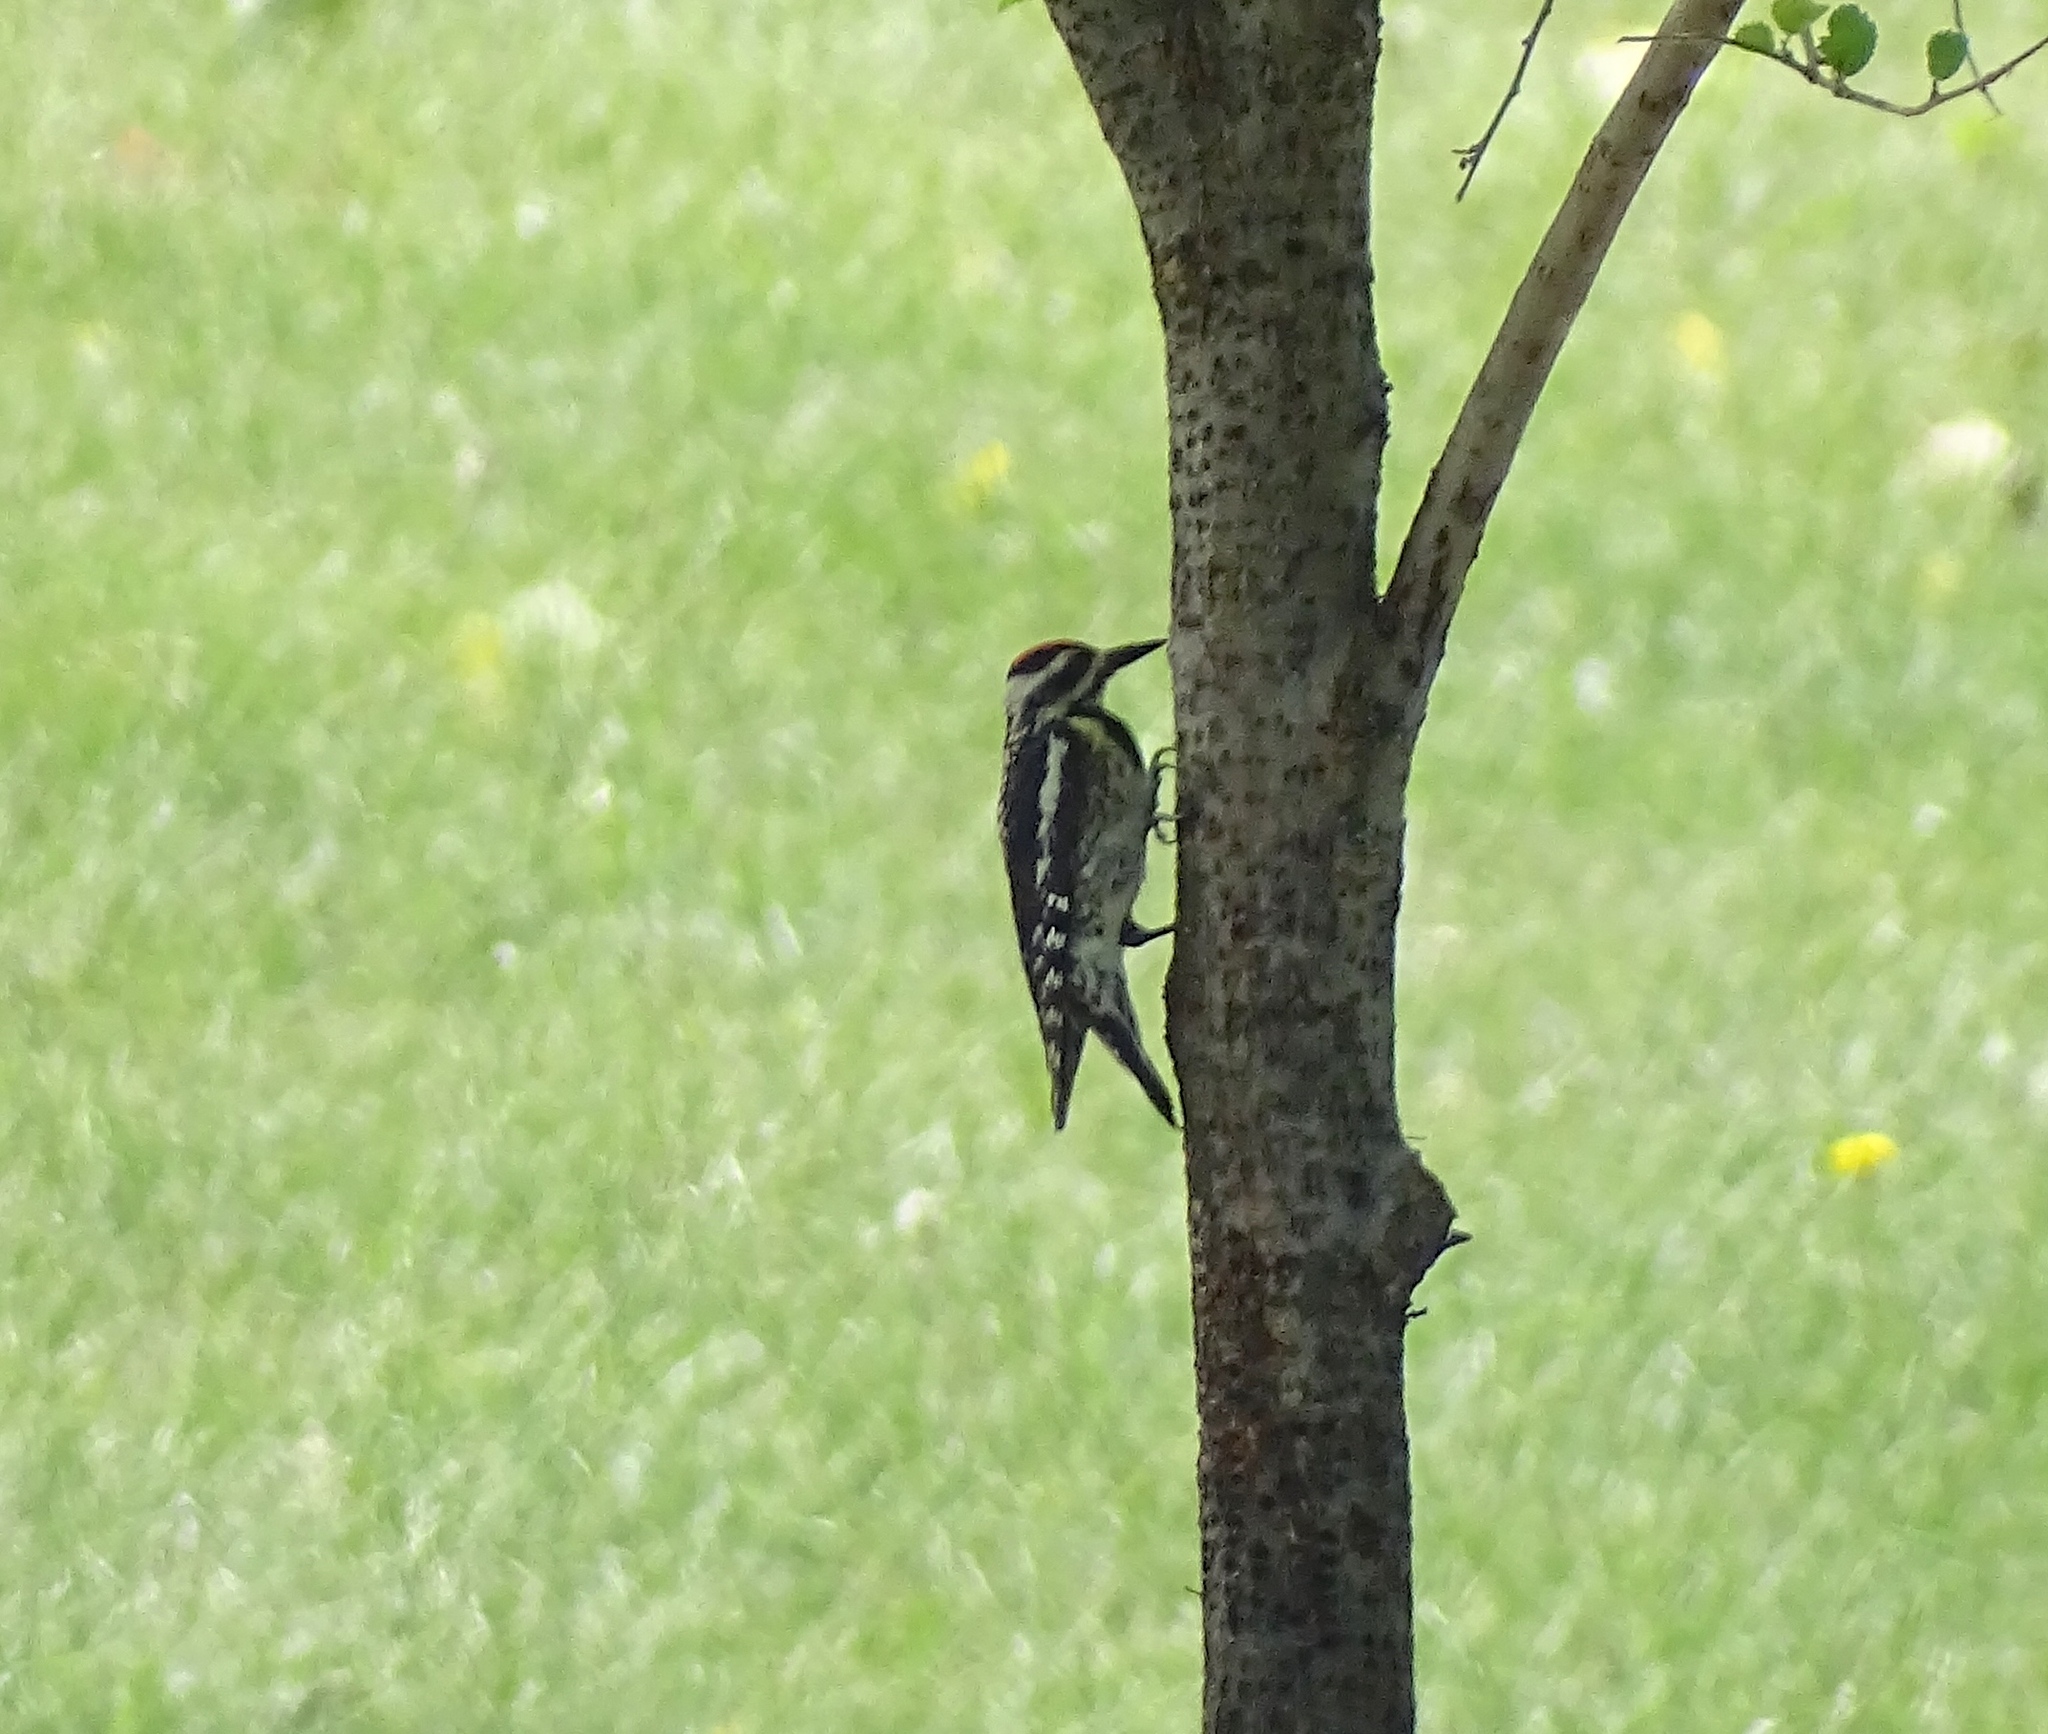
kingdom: Animalia
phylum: Chordata
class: Aves
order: Piciformes
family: Picidae
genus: Sphyrapicus
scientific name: Sphyrapicus varius
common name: Yellow-bellied sapsucker
